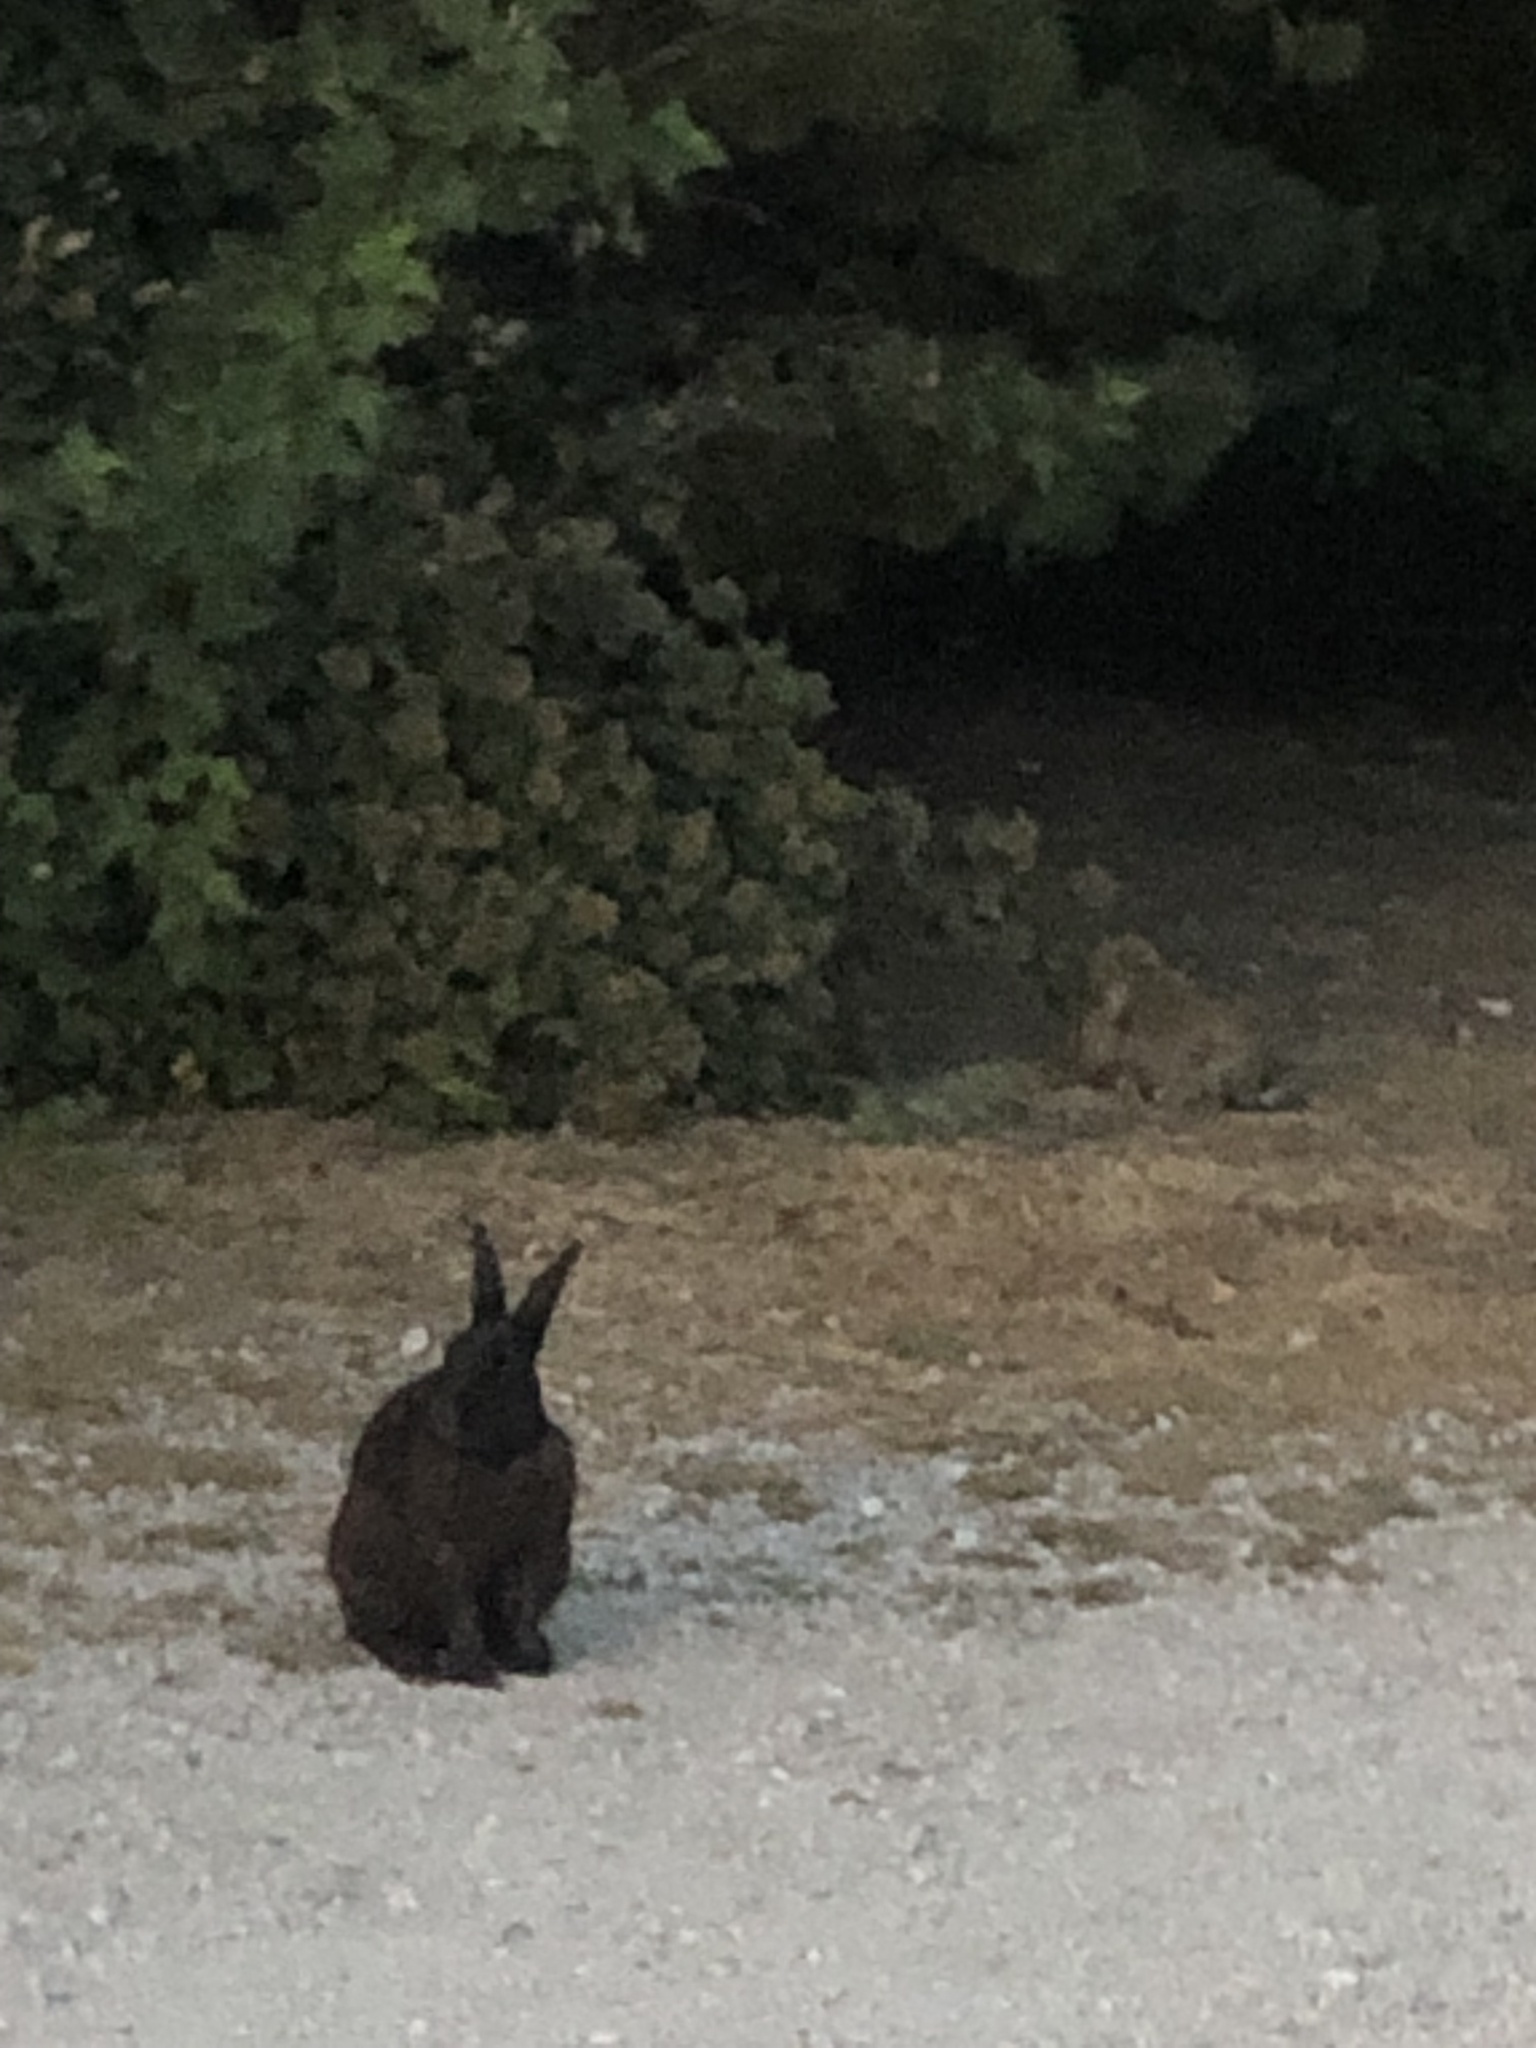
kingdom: Animalia
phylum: Chordata
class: Mammalia
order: Lagomorpha
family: Leporidae
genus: Oryctolagus
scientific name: Oryctolagus cuniculus
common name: European rabbit
